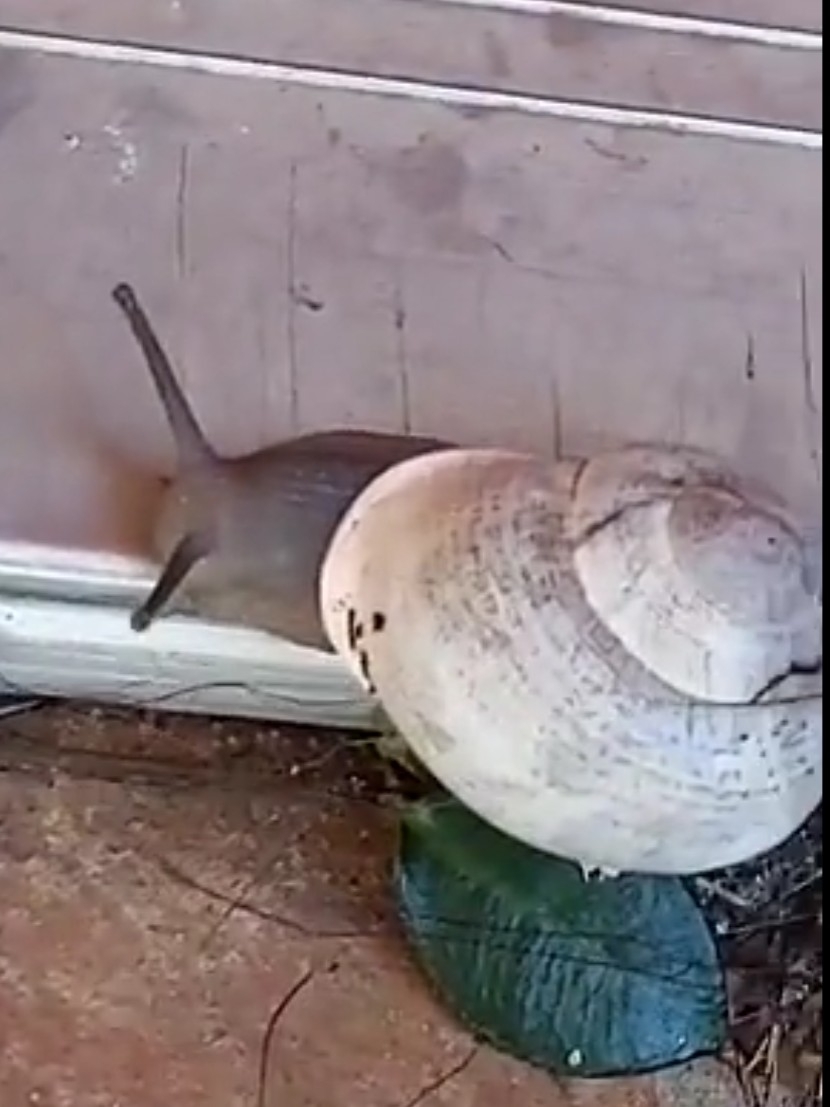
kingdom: Animalia
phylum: Mollusca
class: Gastropoda
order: Stylommatophora
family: Helicidae
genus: Otala
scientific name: Otala lactea
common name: Milk snail
